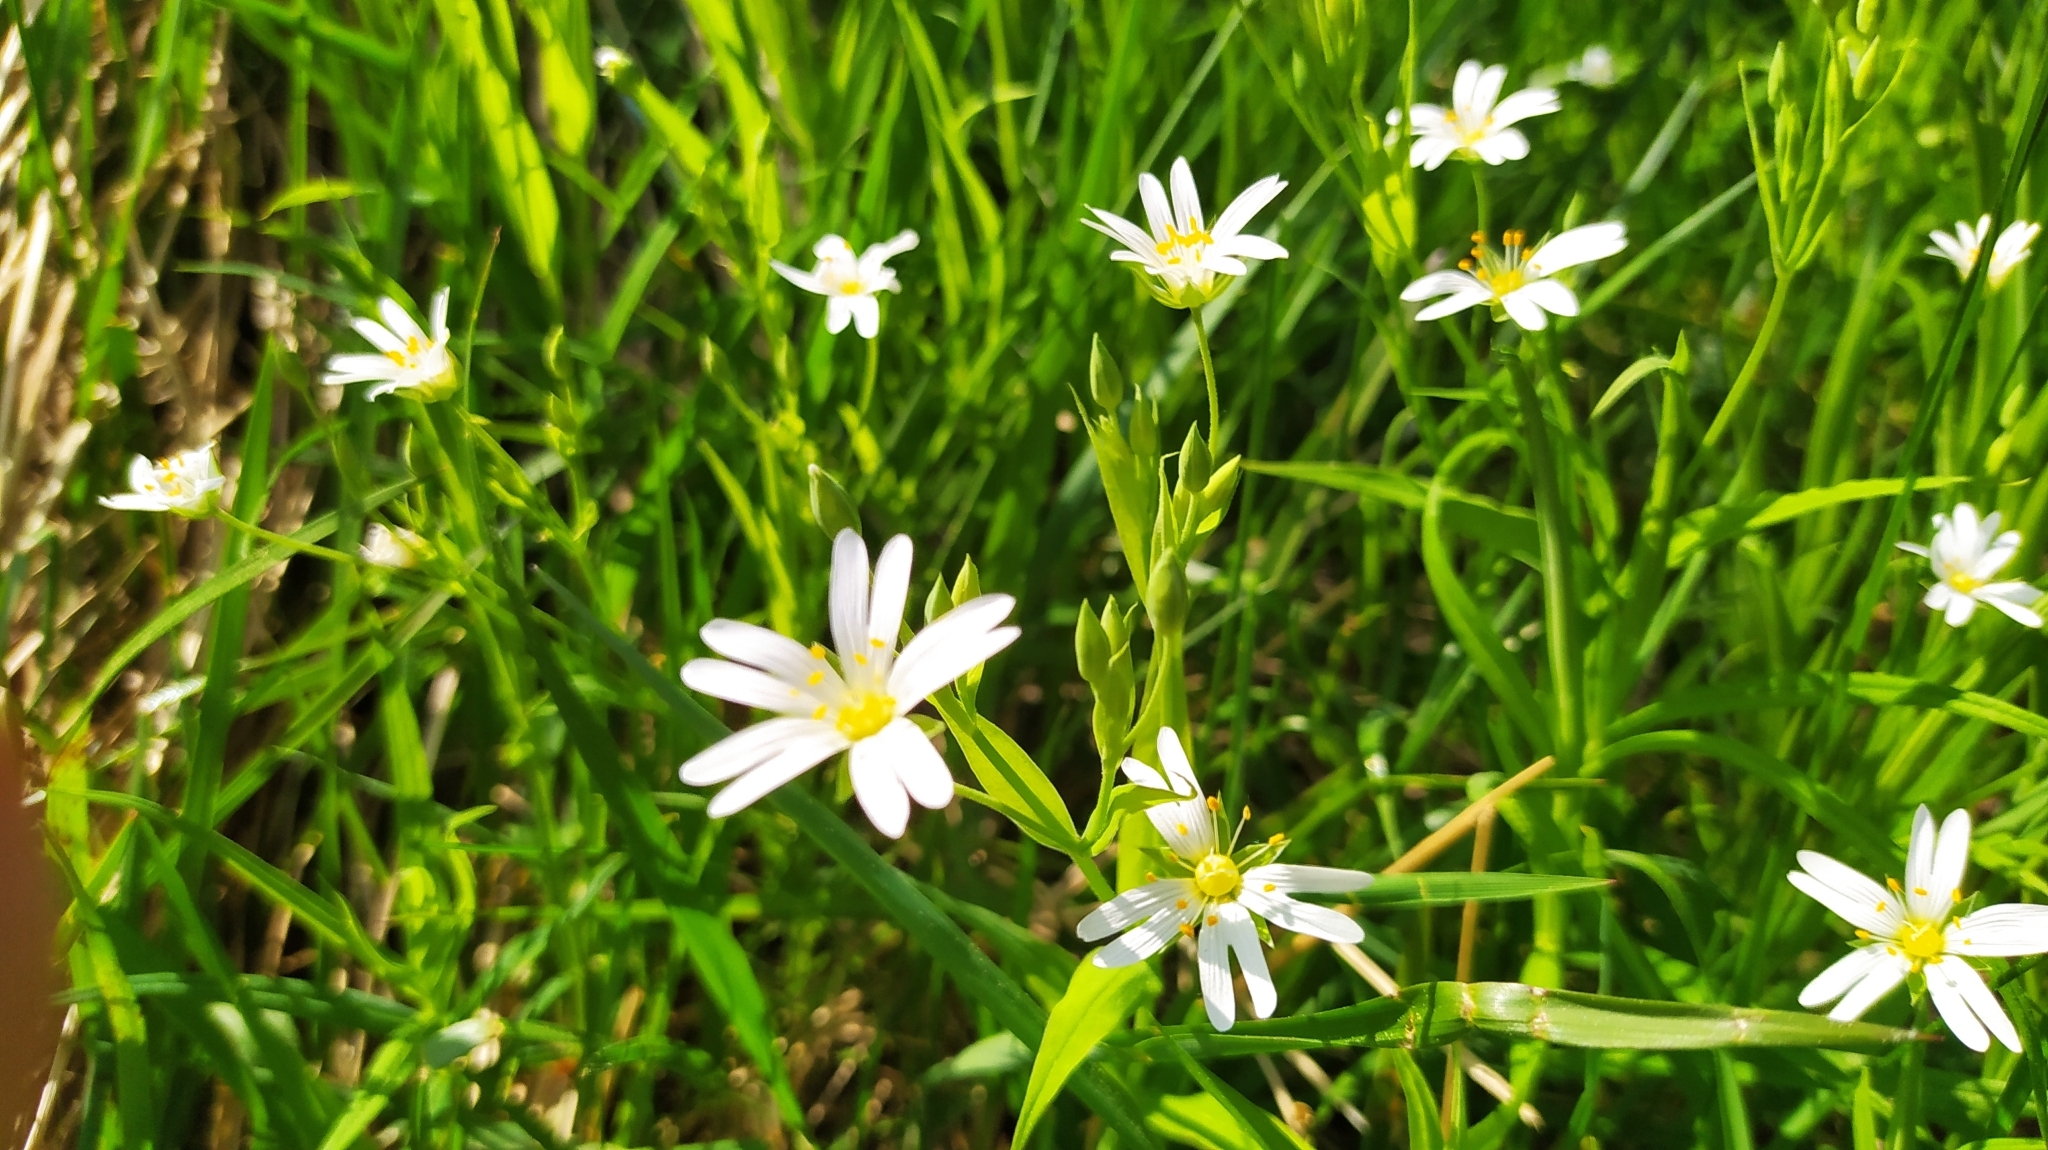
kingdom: Plantae
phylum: Tracheophyta
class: Magnoliopsida
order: Caryophyllales
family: Caryophyllaceae
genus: Rabelera
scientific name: Rabelera holostea
